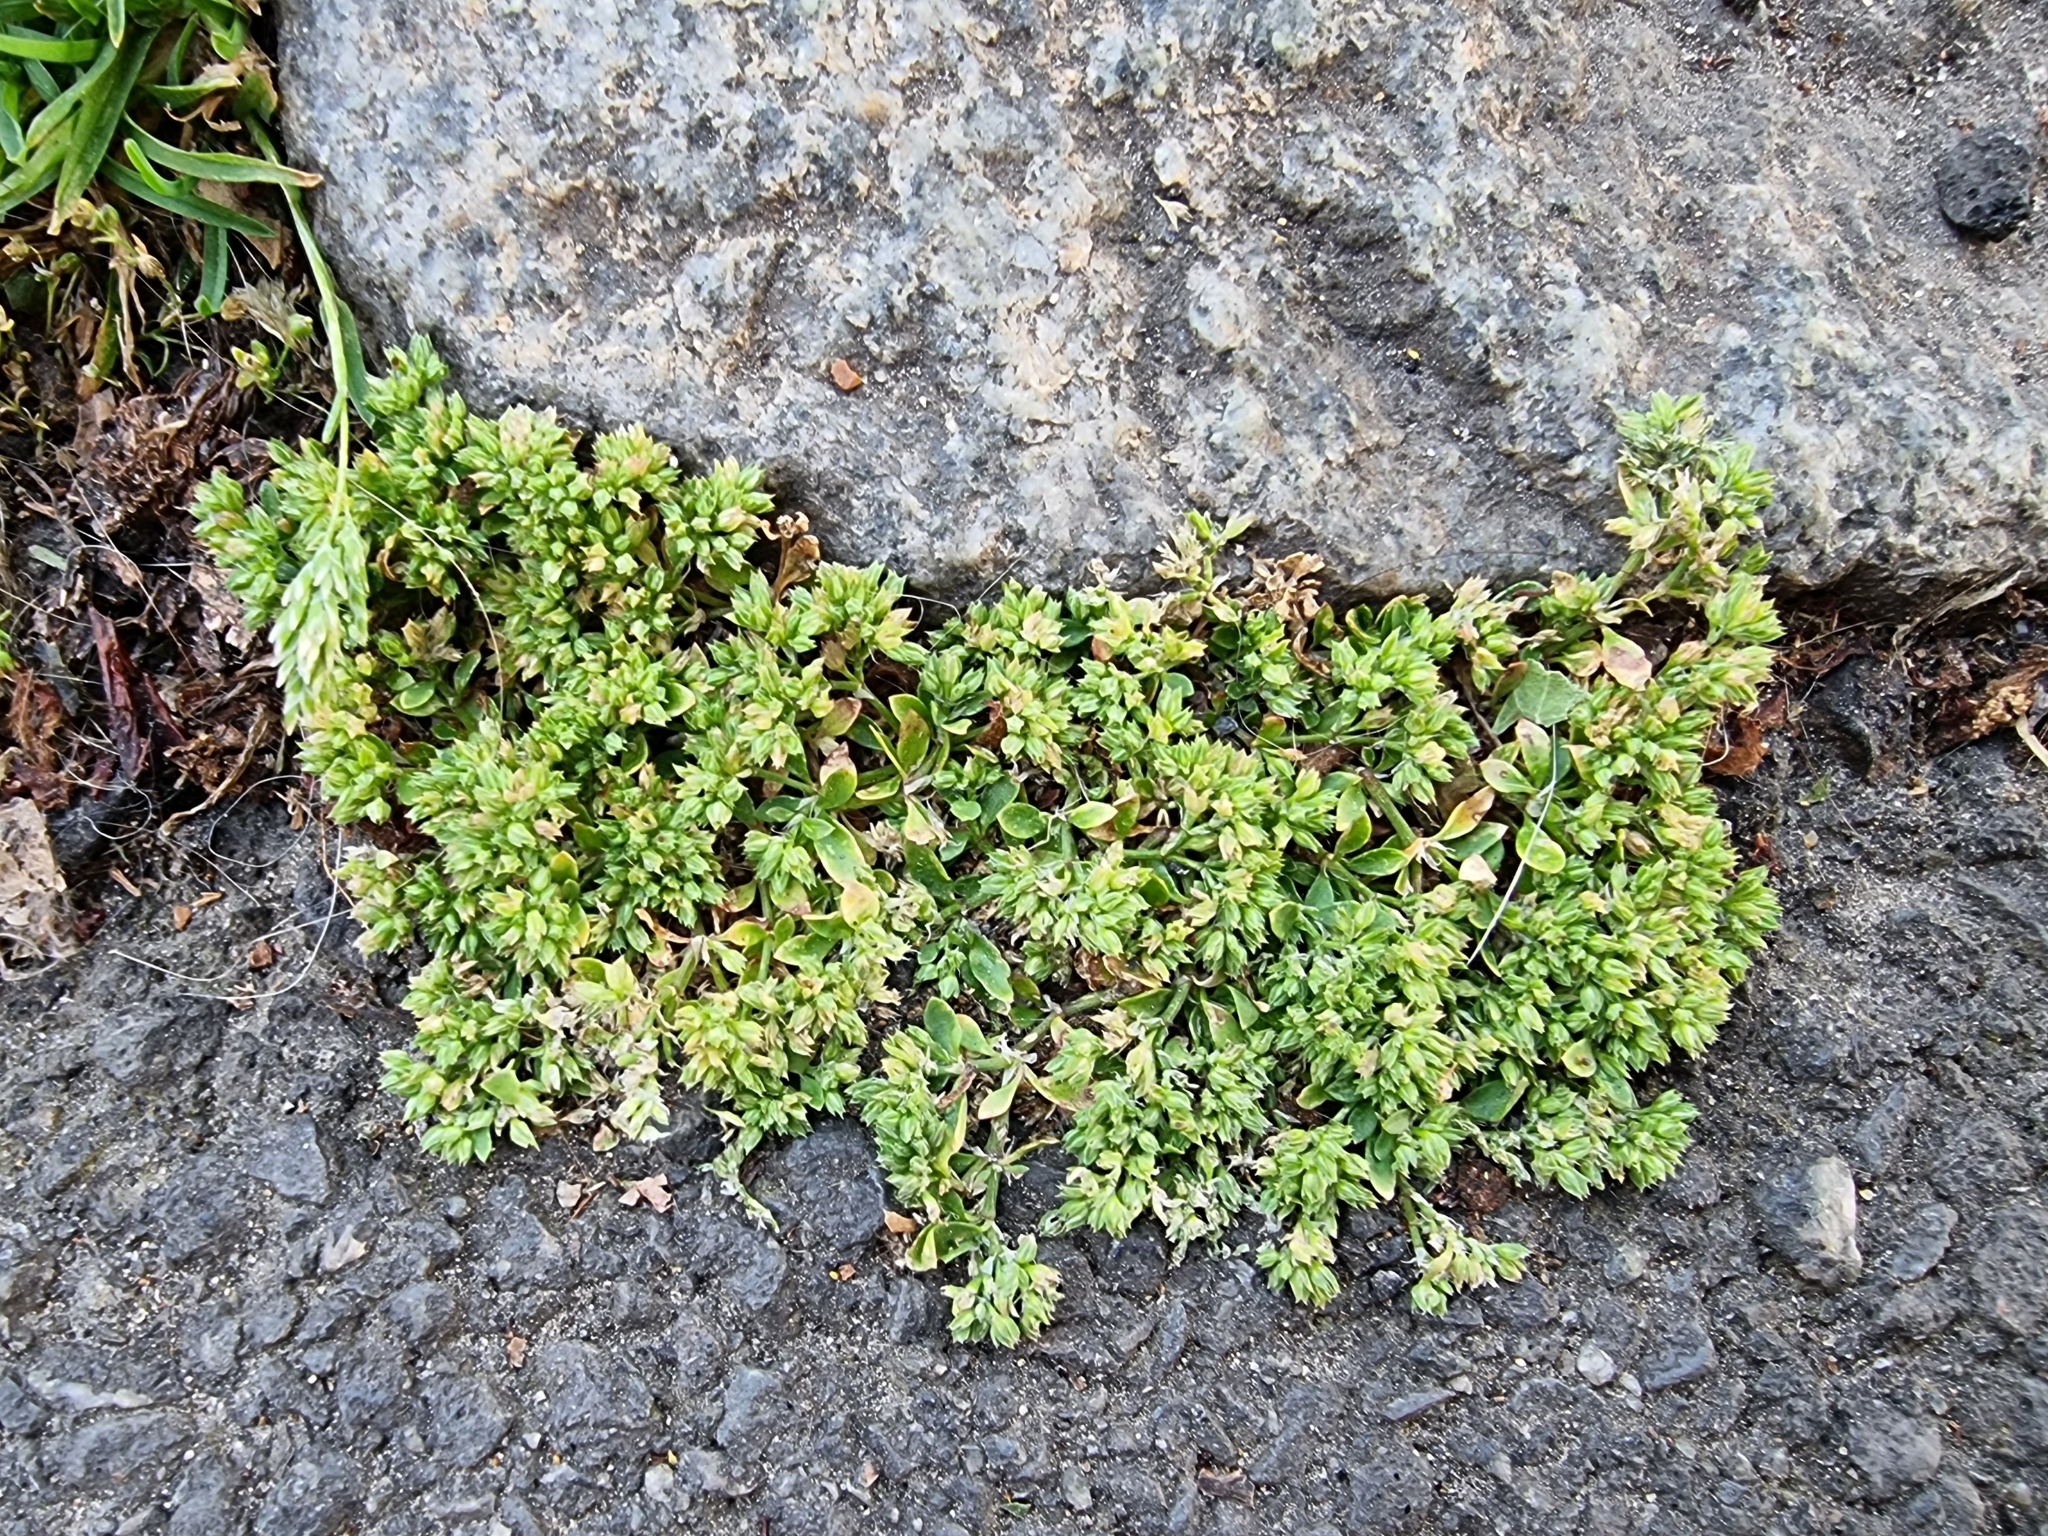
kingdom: Plantae
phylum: Tracheophyta
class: Magnoliopsida
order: Caryophyllales
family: Caryophyllaceae
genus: Polycarpon
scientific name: Polycarpon tetraphyllum
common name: Four-leaved all-seed
